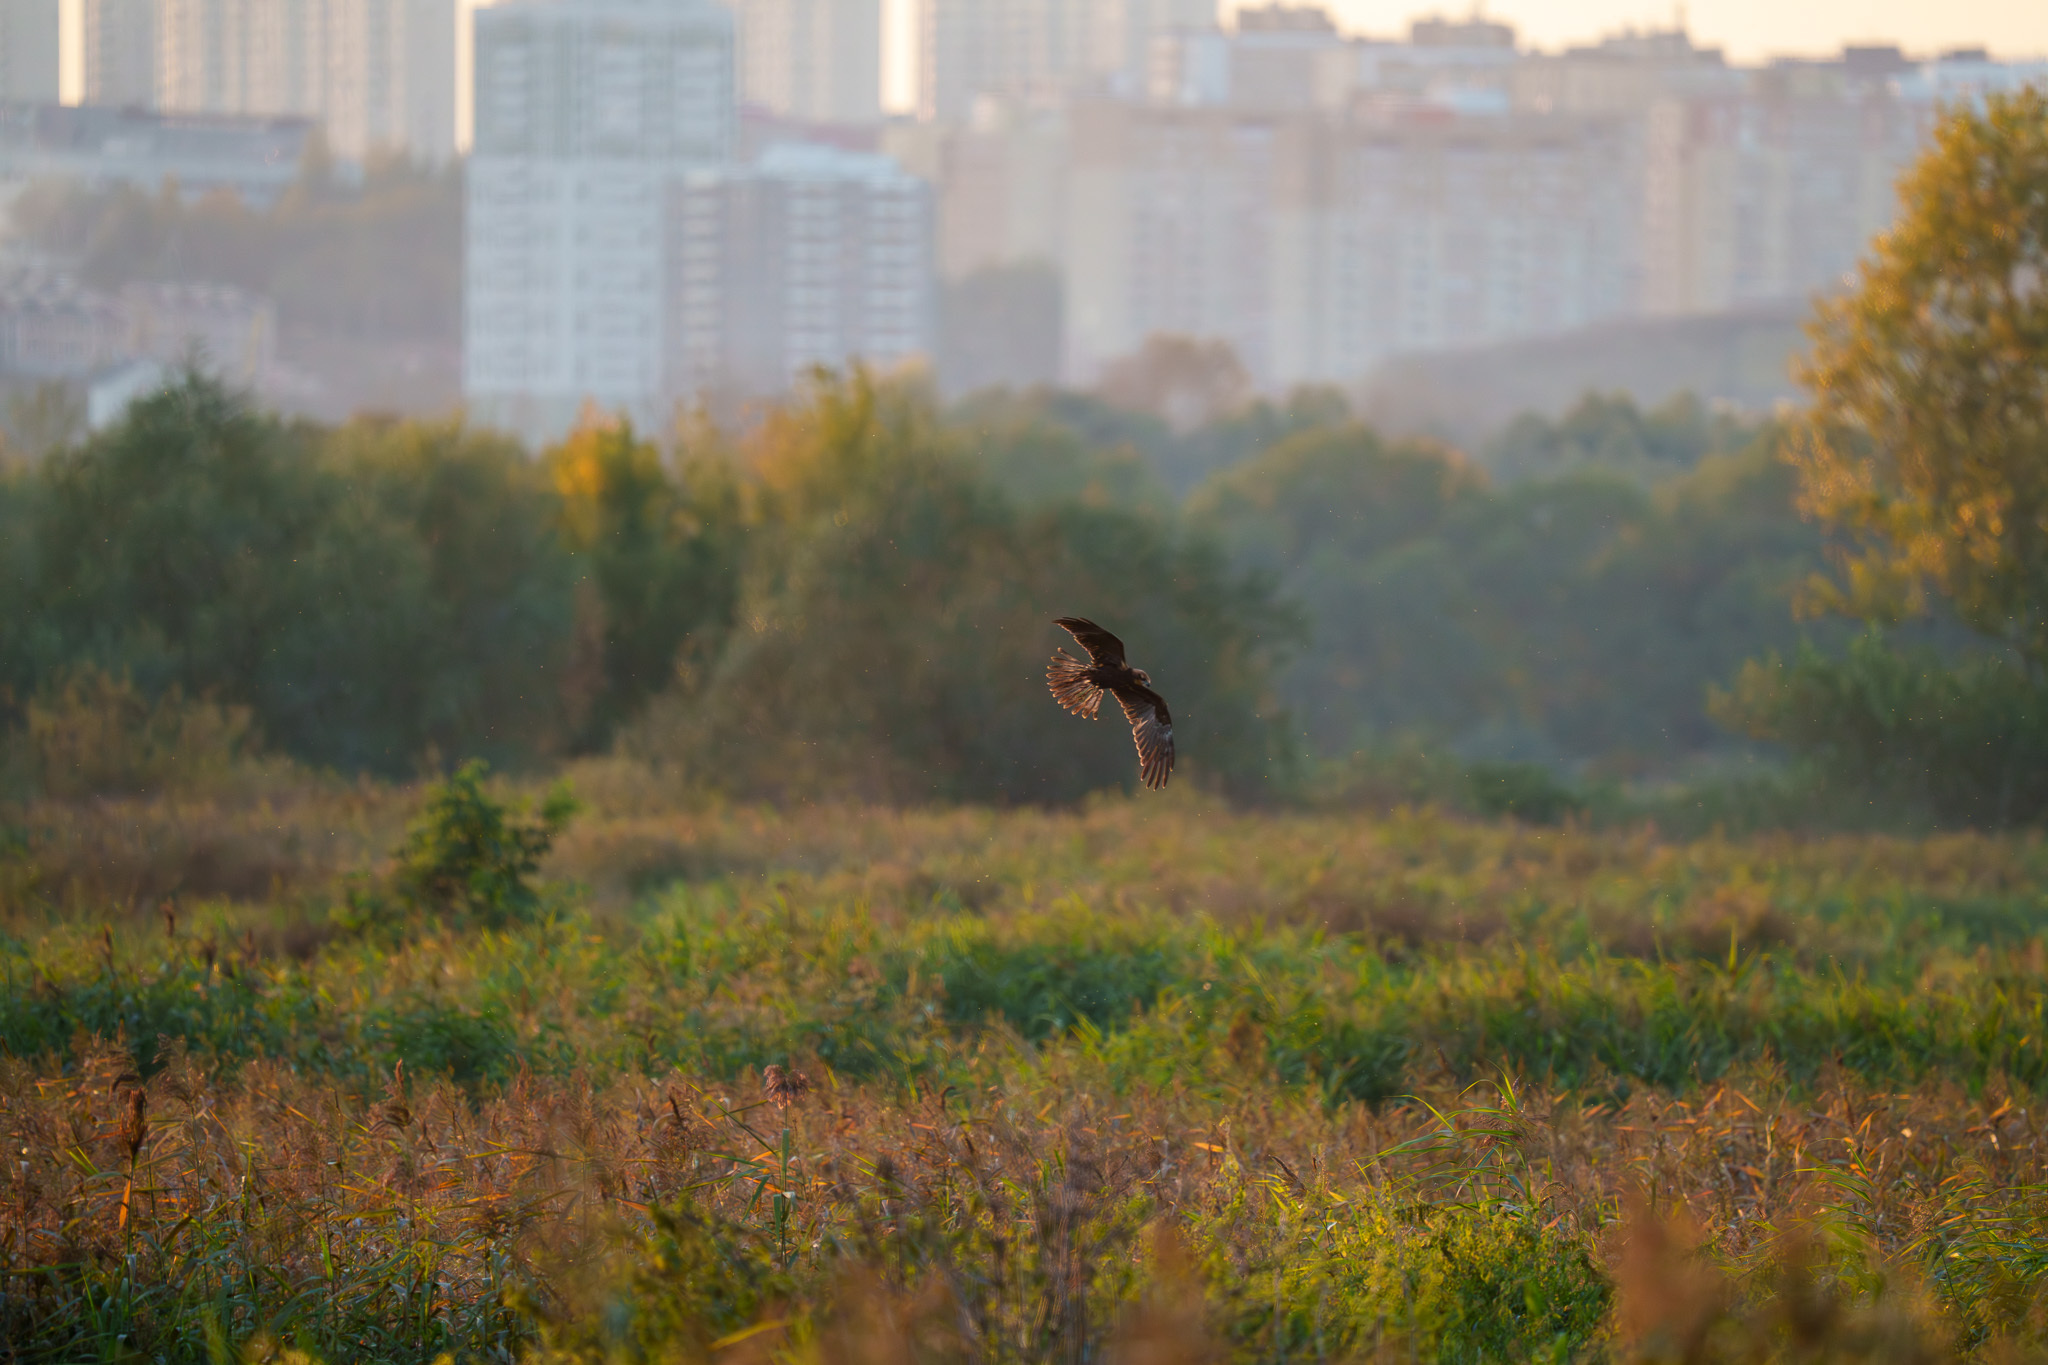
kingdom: Animalia
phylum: Chordata
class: Aves
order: Accipitriformes
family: Accipitridae
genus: Circus
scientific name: Circus aeruginosus
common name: Western marsh harrier
